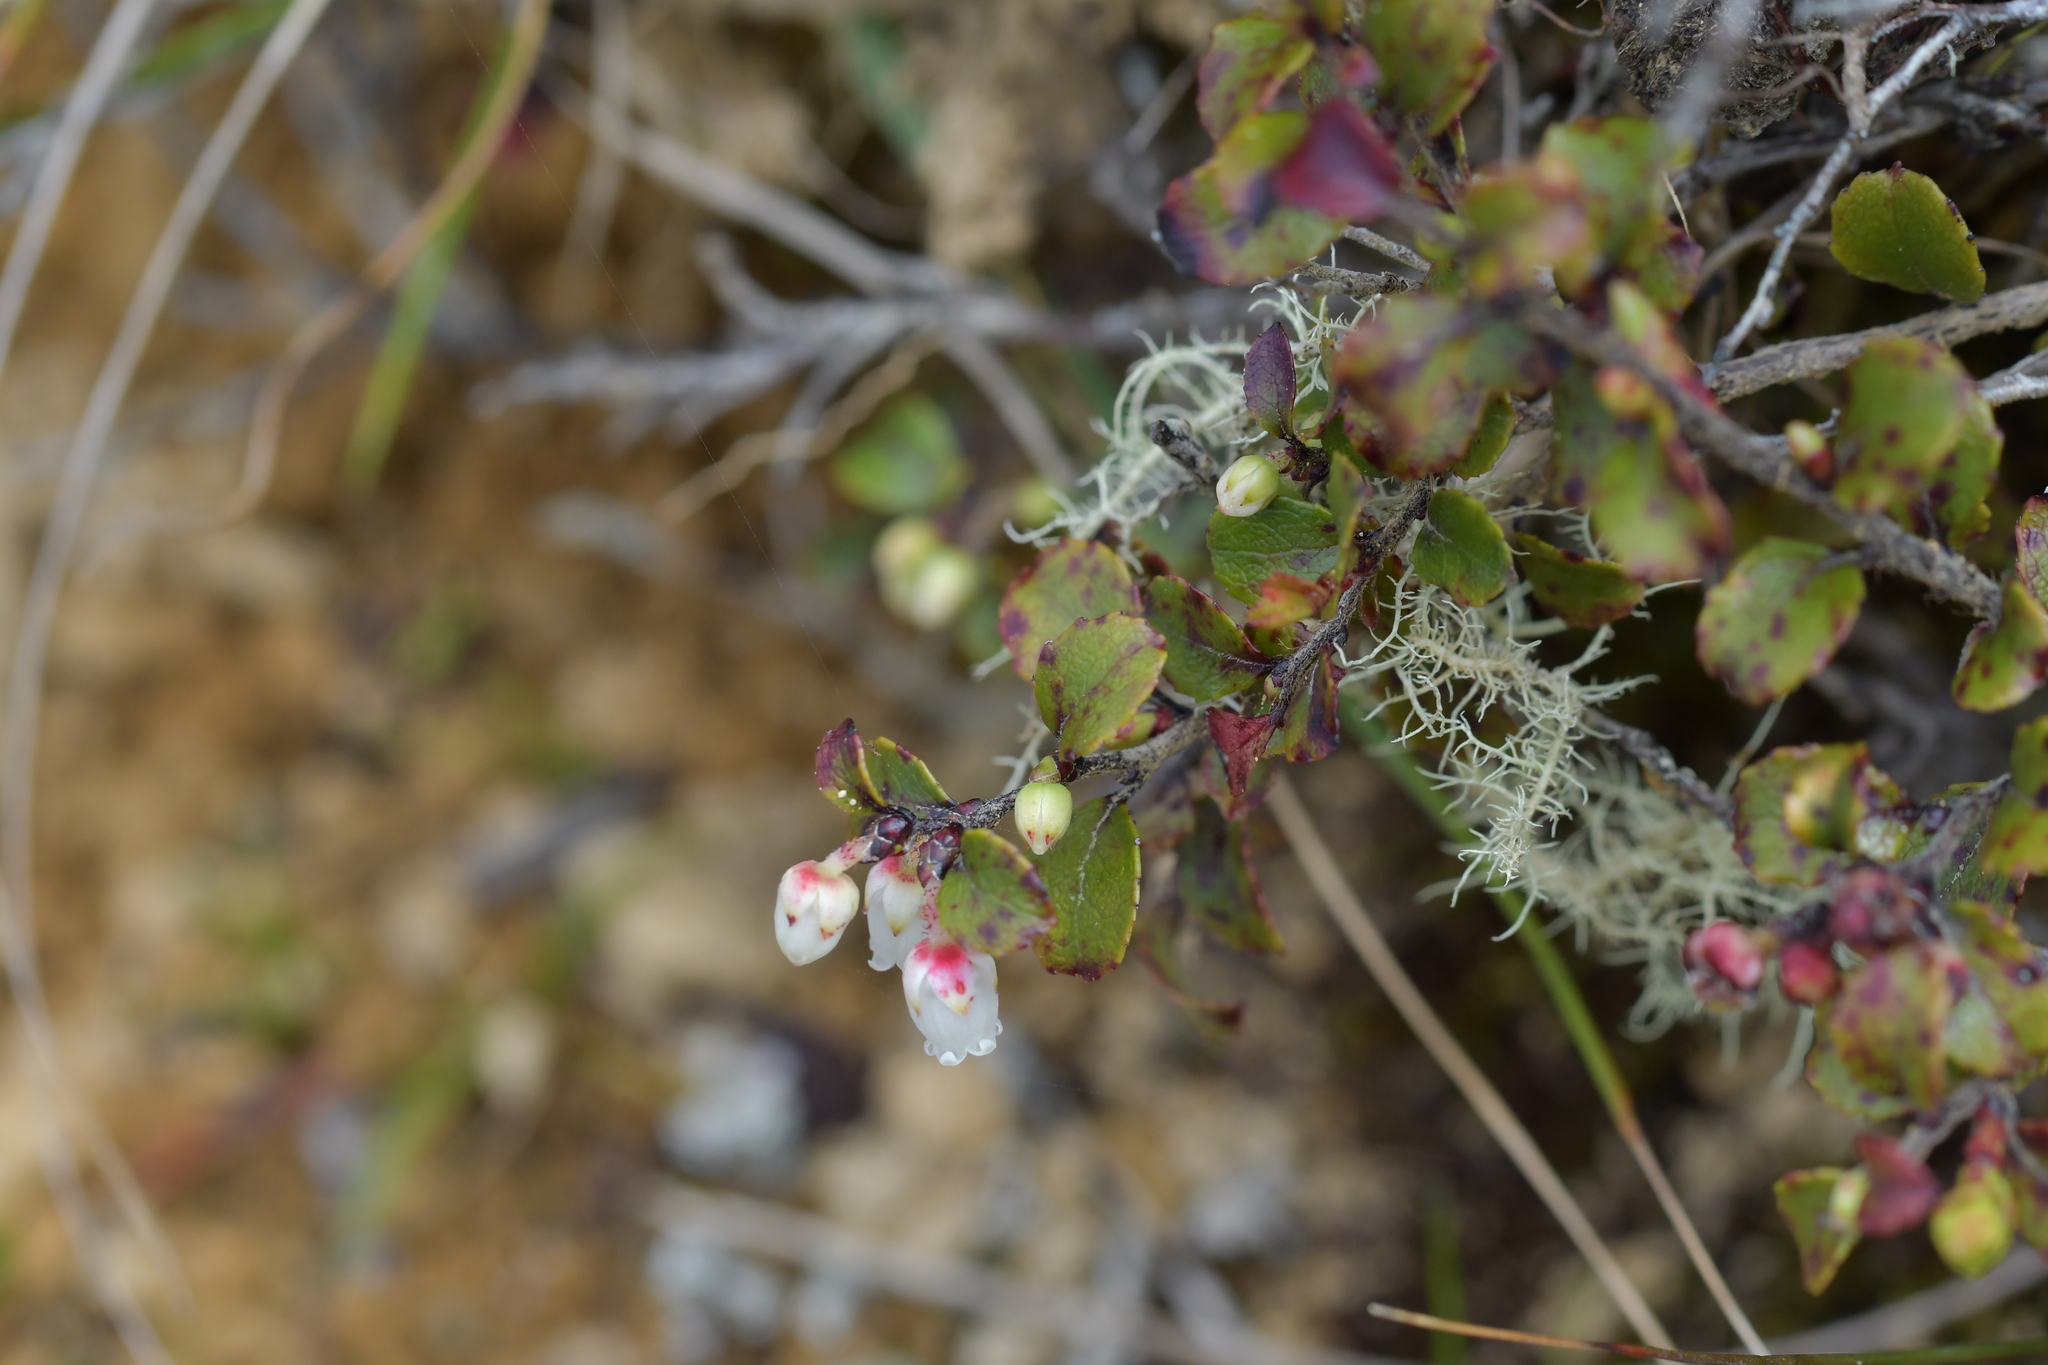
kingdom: Plantae
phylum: Tracheophyta
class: Magnoliopsida
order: Ericales
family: Ericaceae
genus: Gaultheria
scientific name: Gaultheria antipoda
